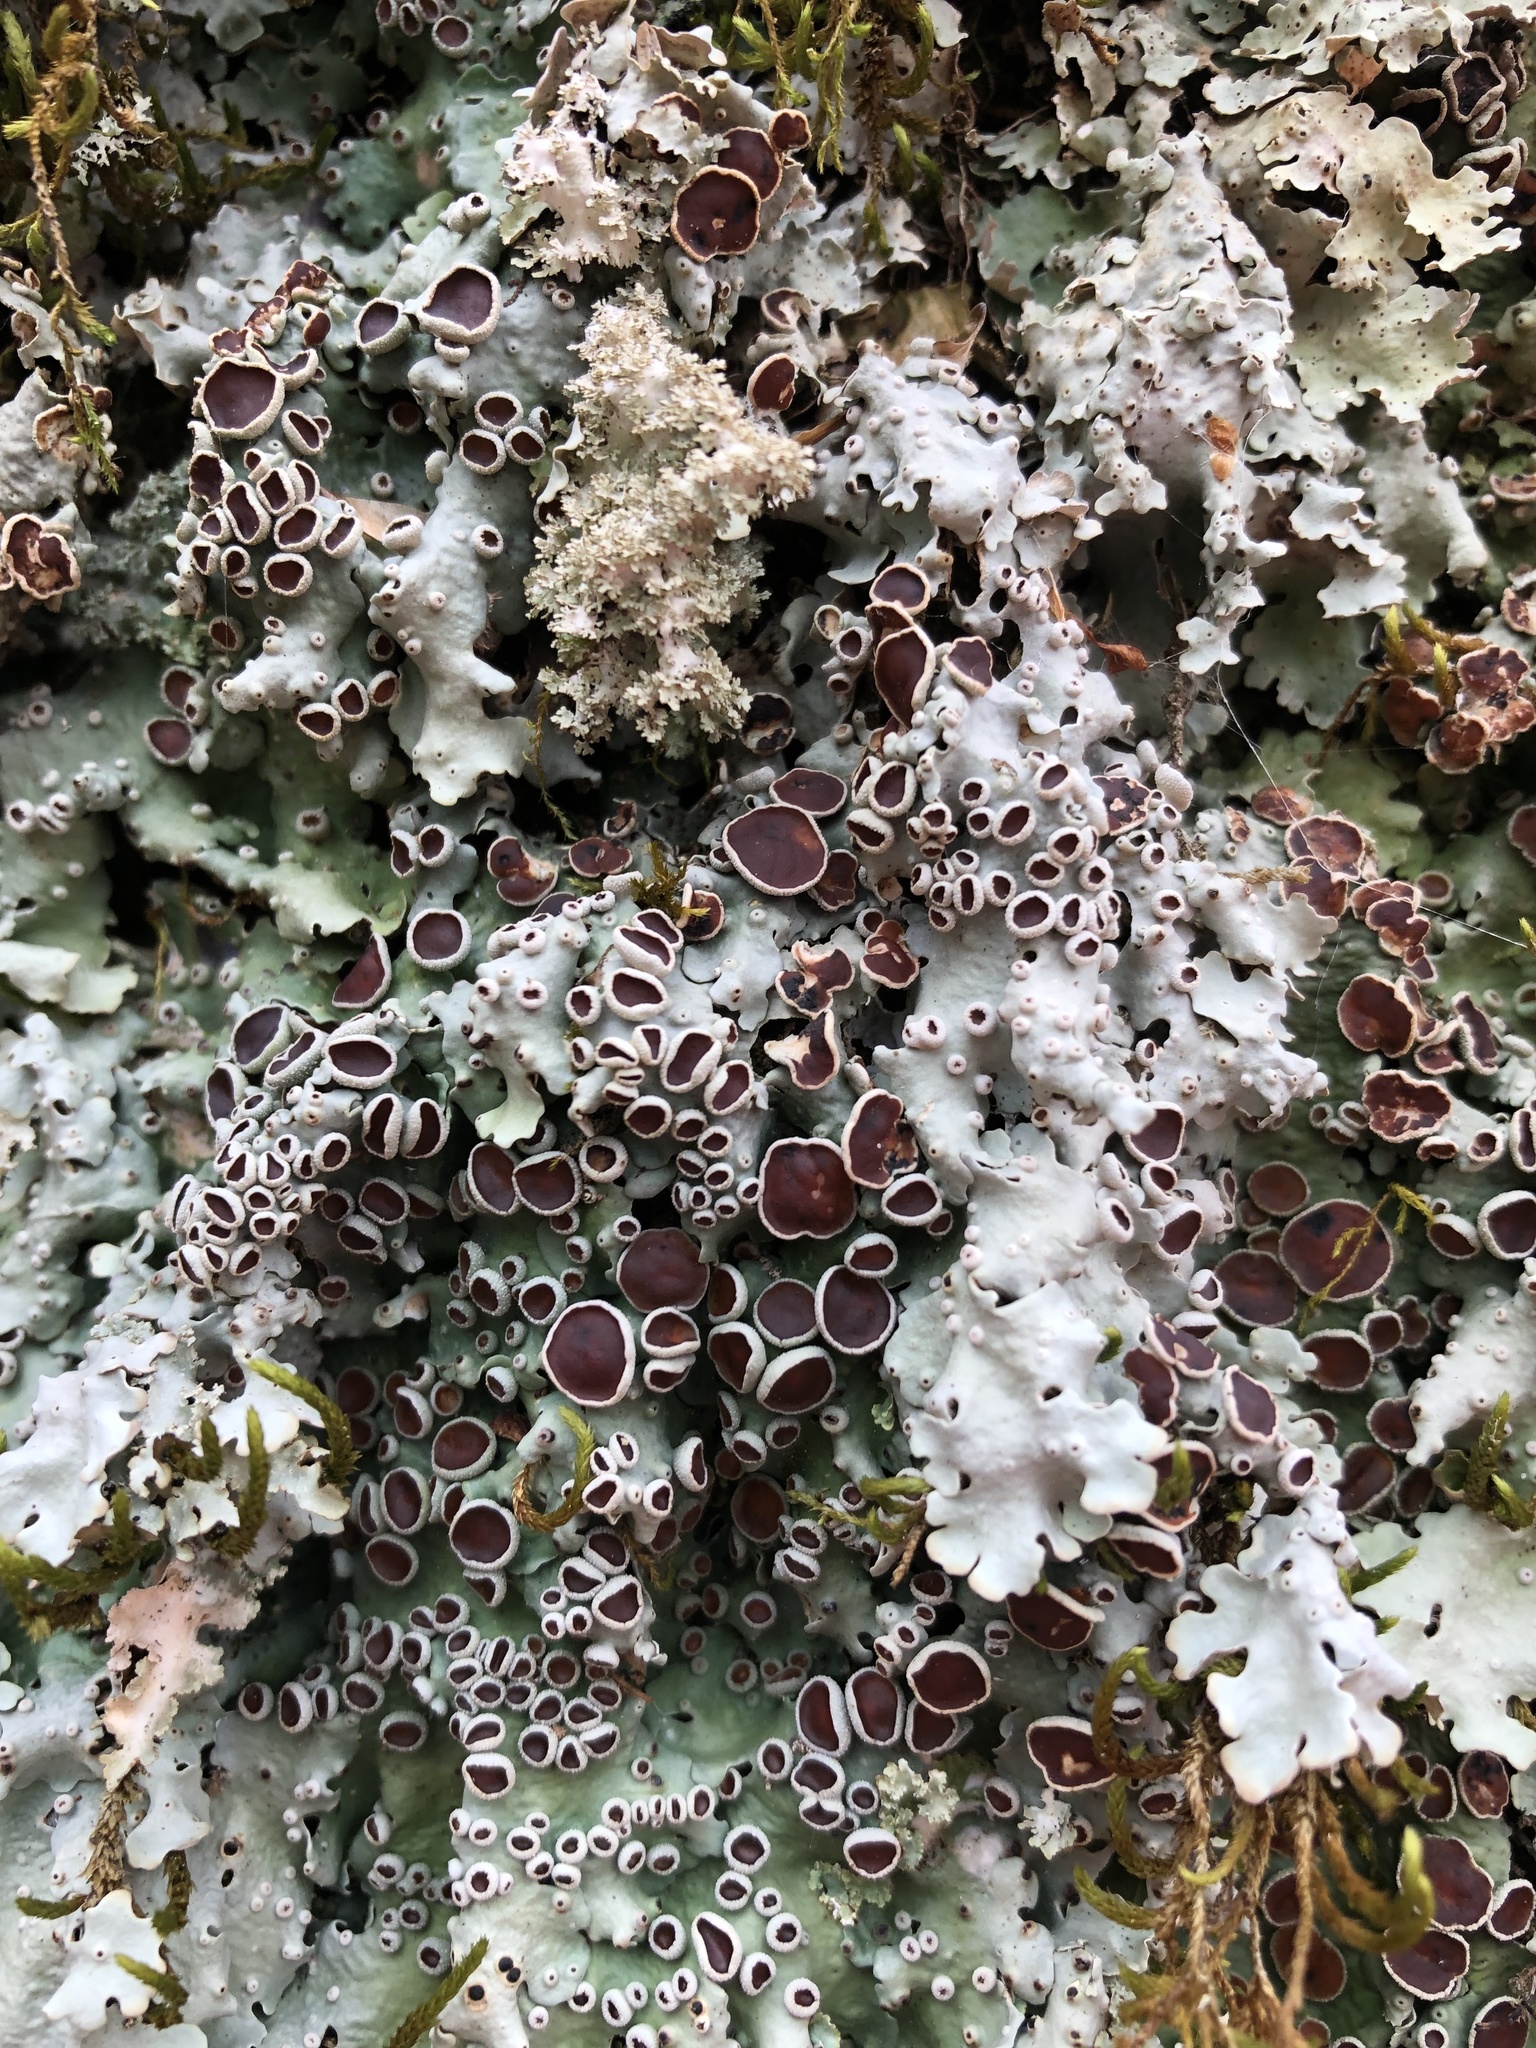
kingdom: Fungi
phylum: Ascomycota
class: Lecanoromycetes
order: Peltigerales
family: Lobariaceae
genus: Ricasolia
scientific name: Ricasolia quercizans
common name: Smooth lungwort
